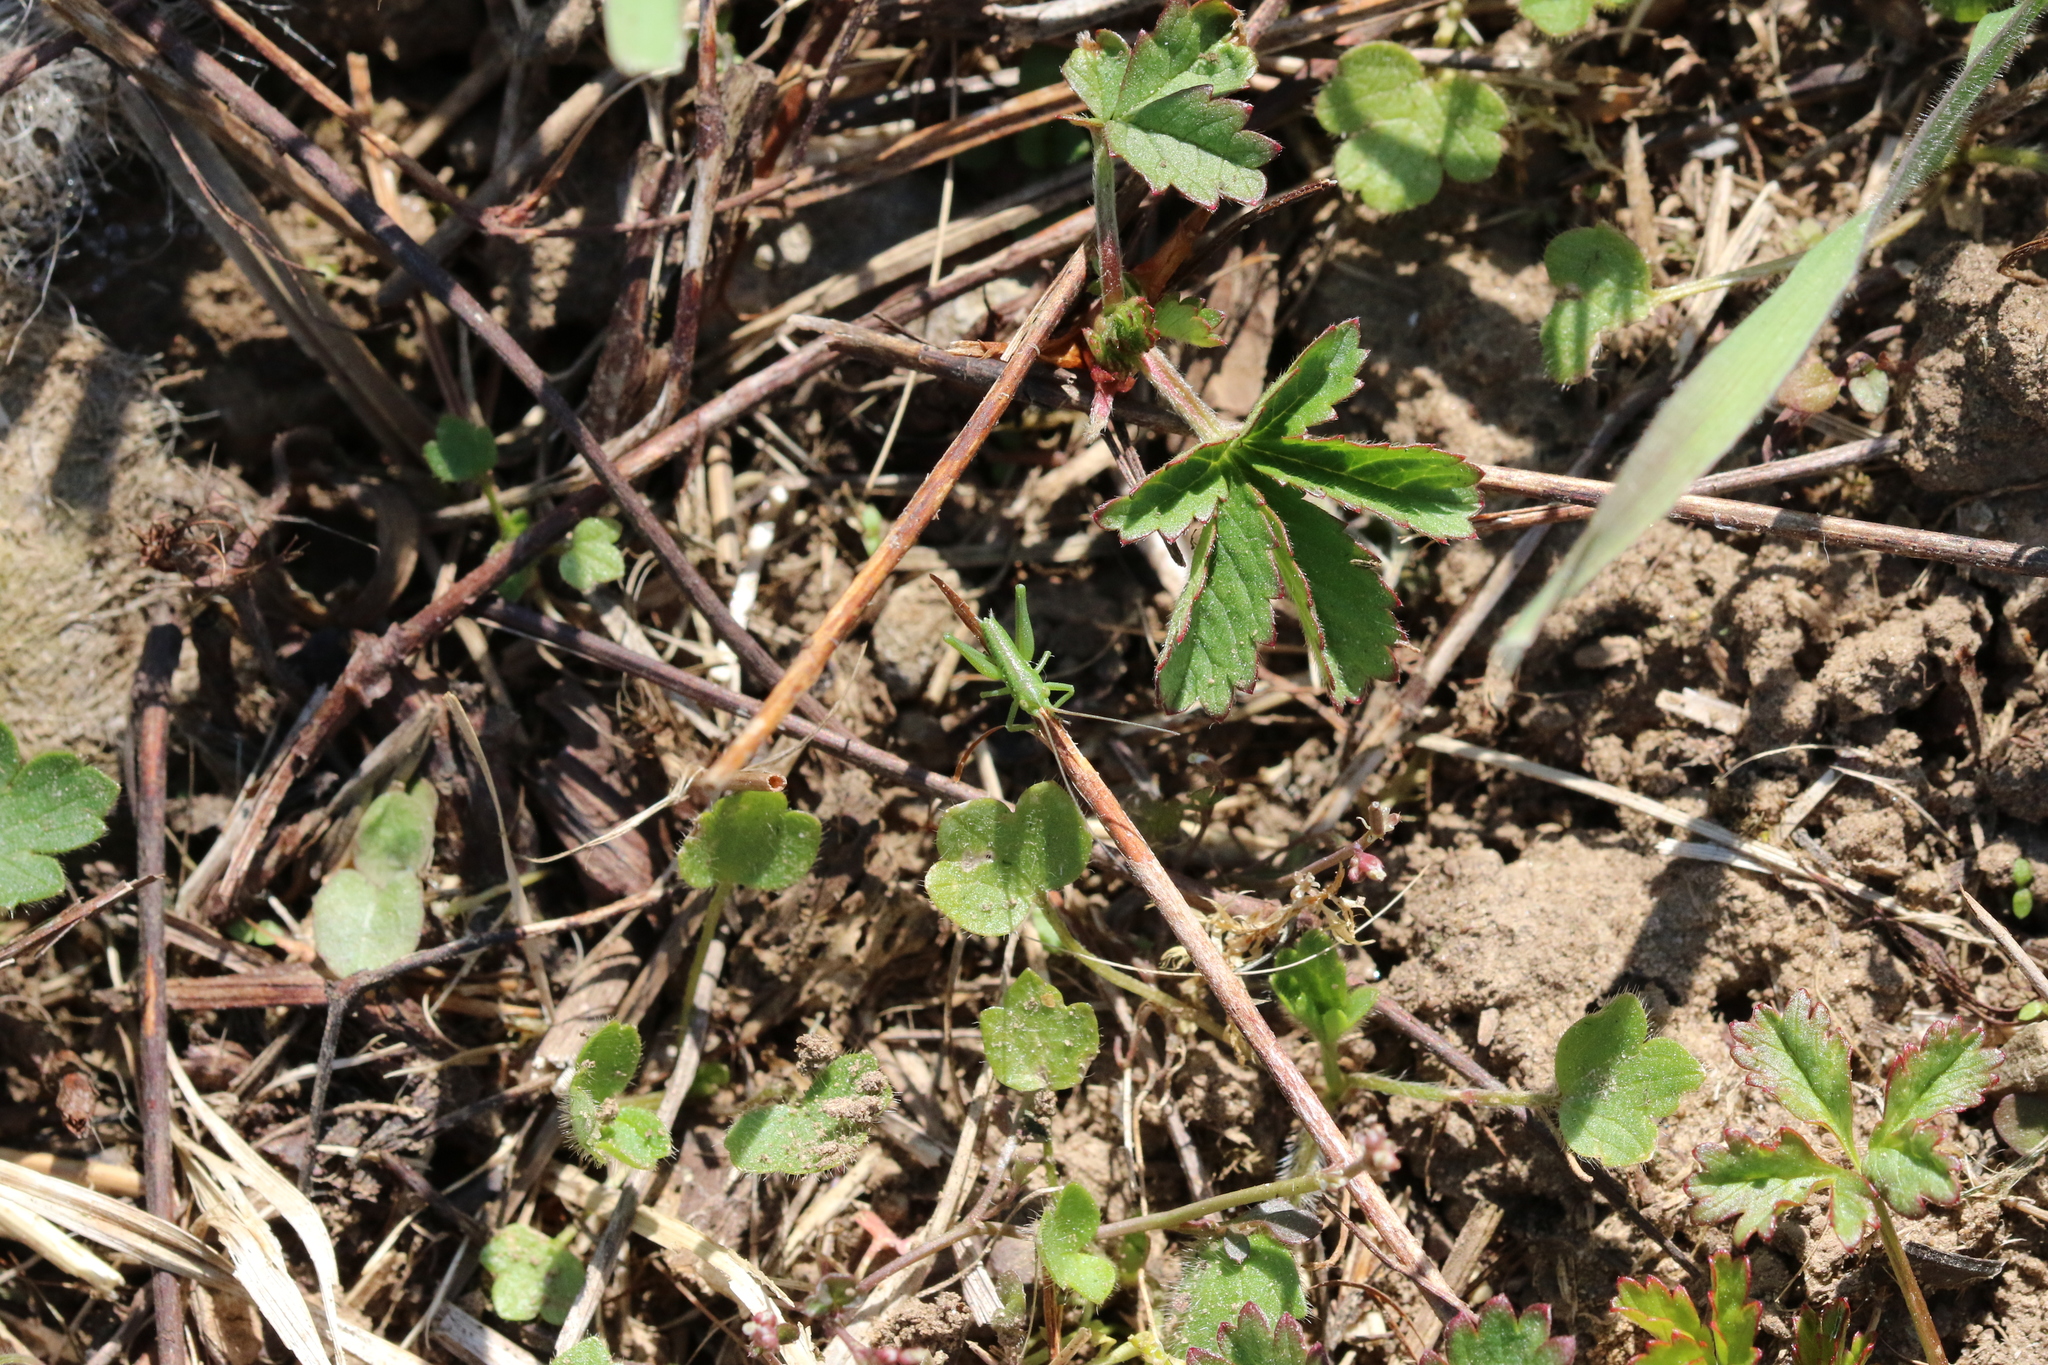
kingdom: Animalia
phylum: Arthropoda
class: Insecta
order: Orthoptera
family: Tettigoniidae
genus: Tettigonia
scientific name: Tettigonia viridissima
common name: Great green bush-cricket
